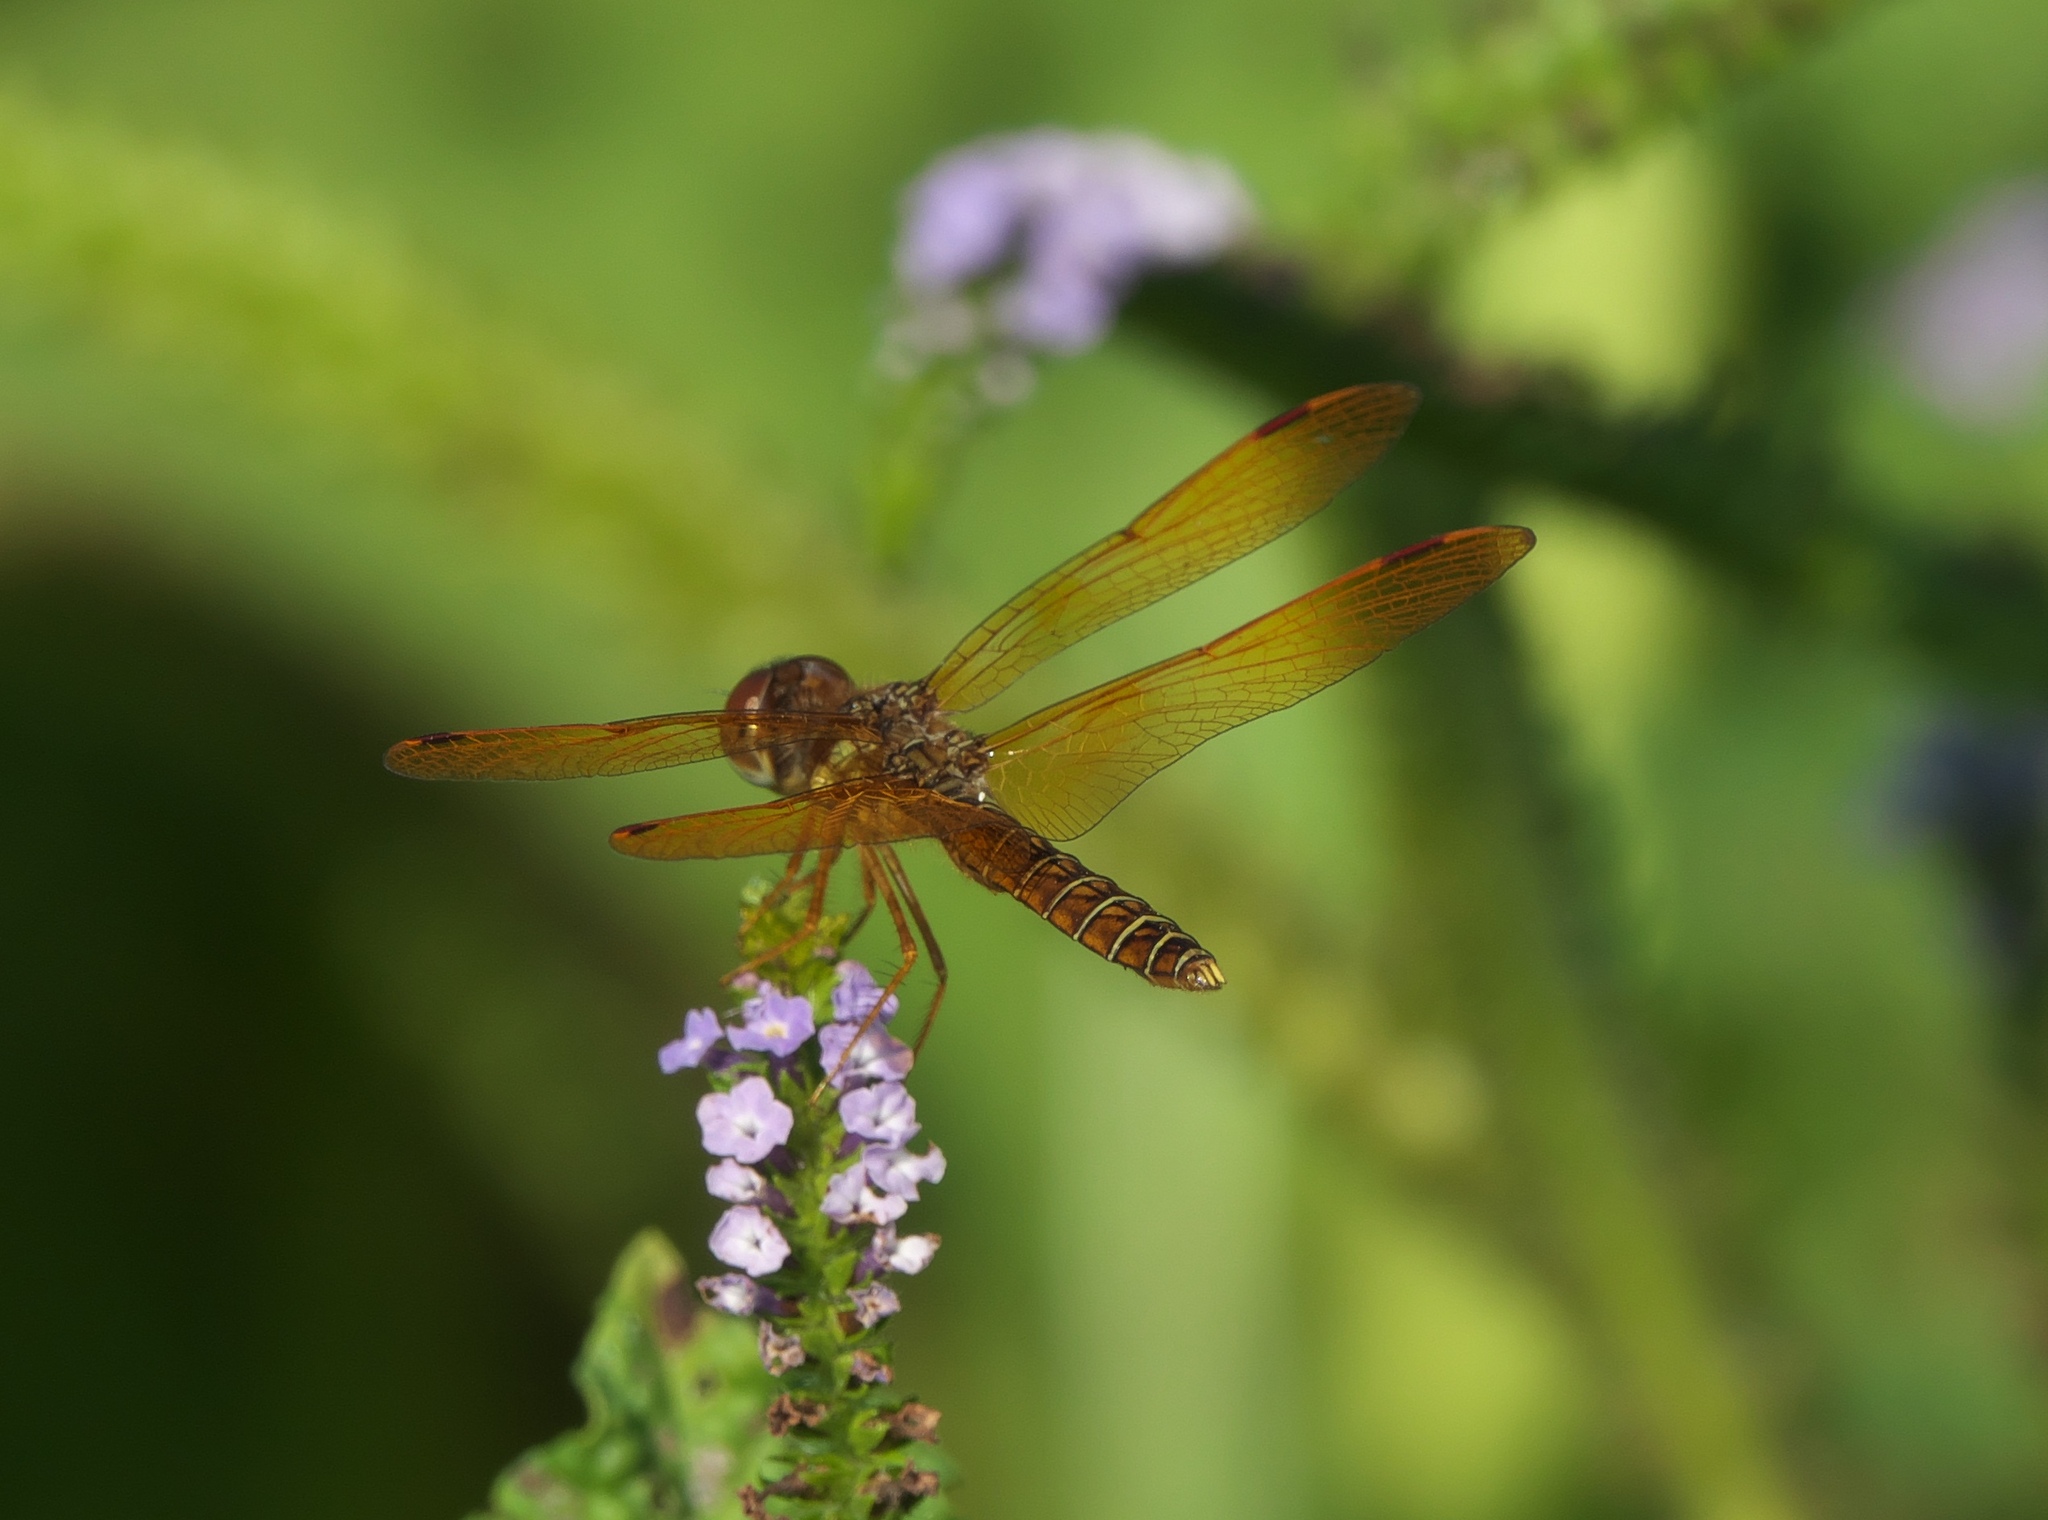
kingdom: Animalia
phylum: Arthropoda
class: Insecta
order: Odonata
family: Libellulidae
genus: Perithemis
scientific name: Perithemis tenera
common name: Eastern amberwing
